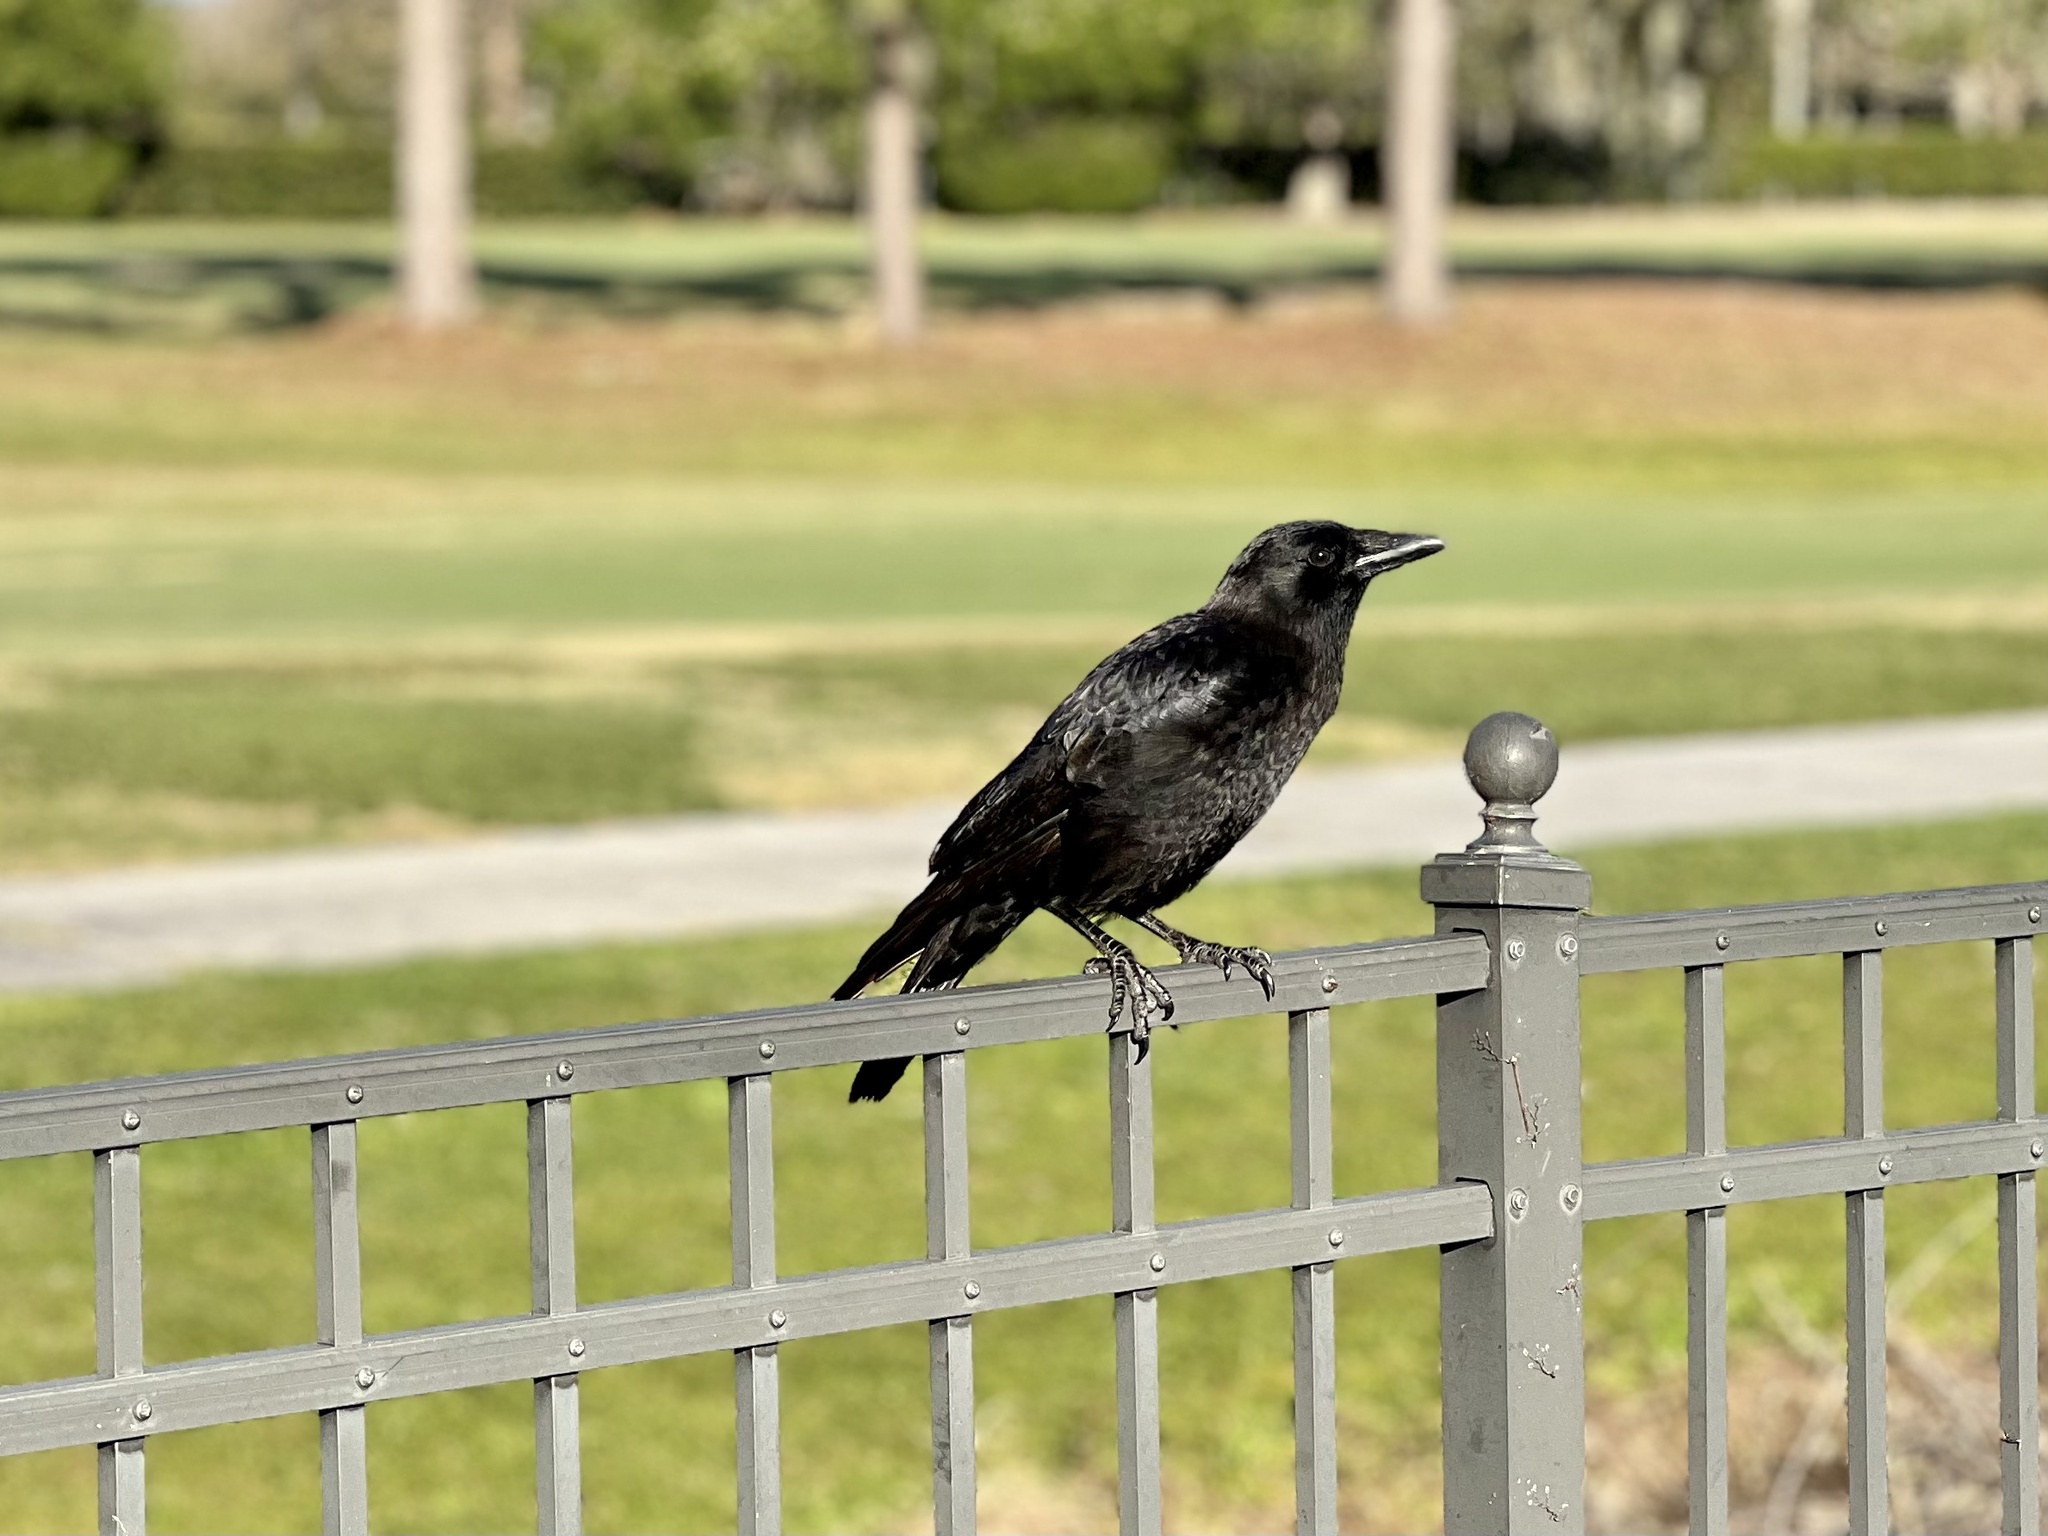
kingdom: Animalia
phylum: Chordata
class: Aves
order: Passeriformes
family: Corvidae
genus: Corvus
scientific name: Corvus brachyrhynchos
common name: American crow
